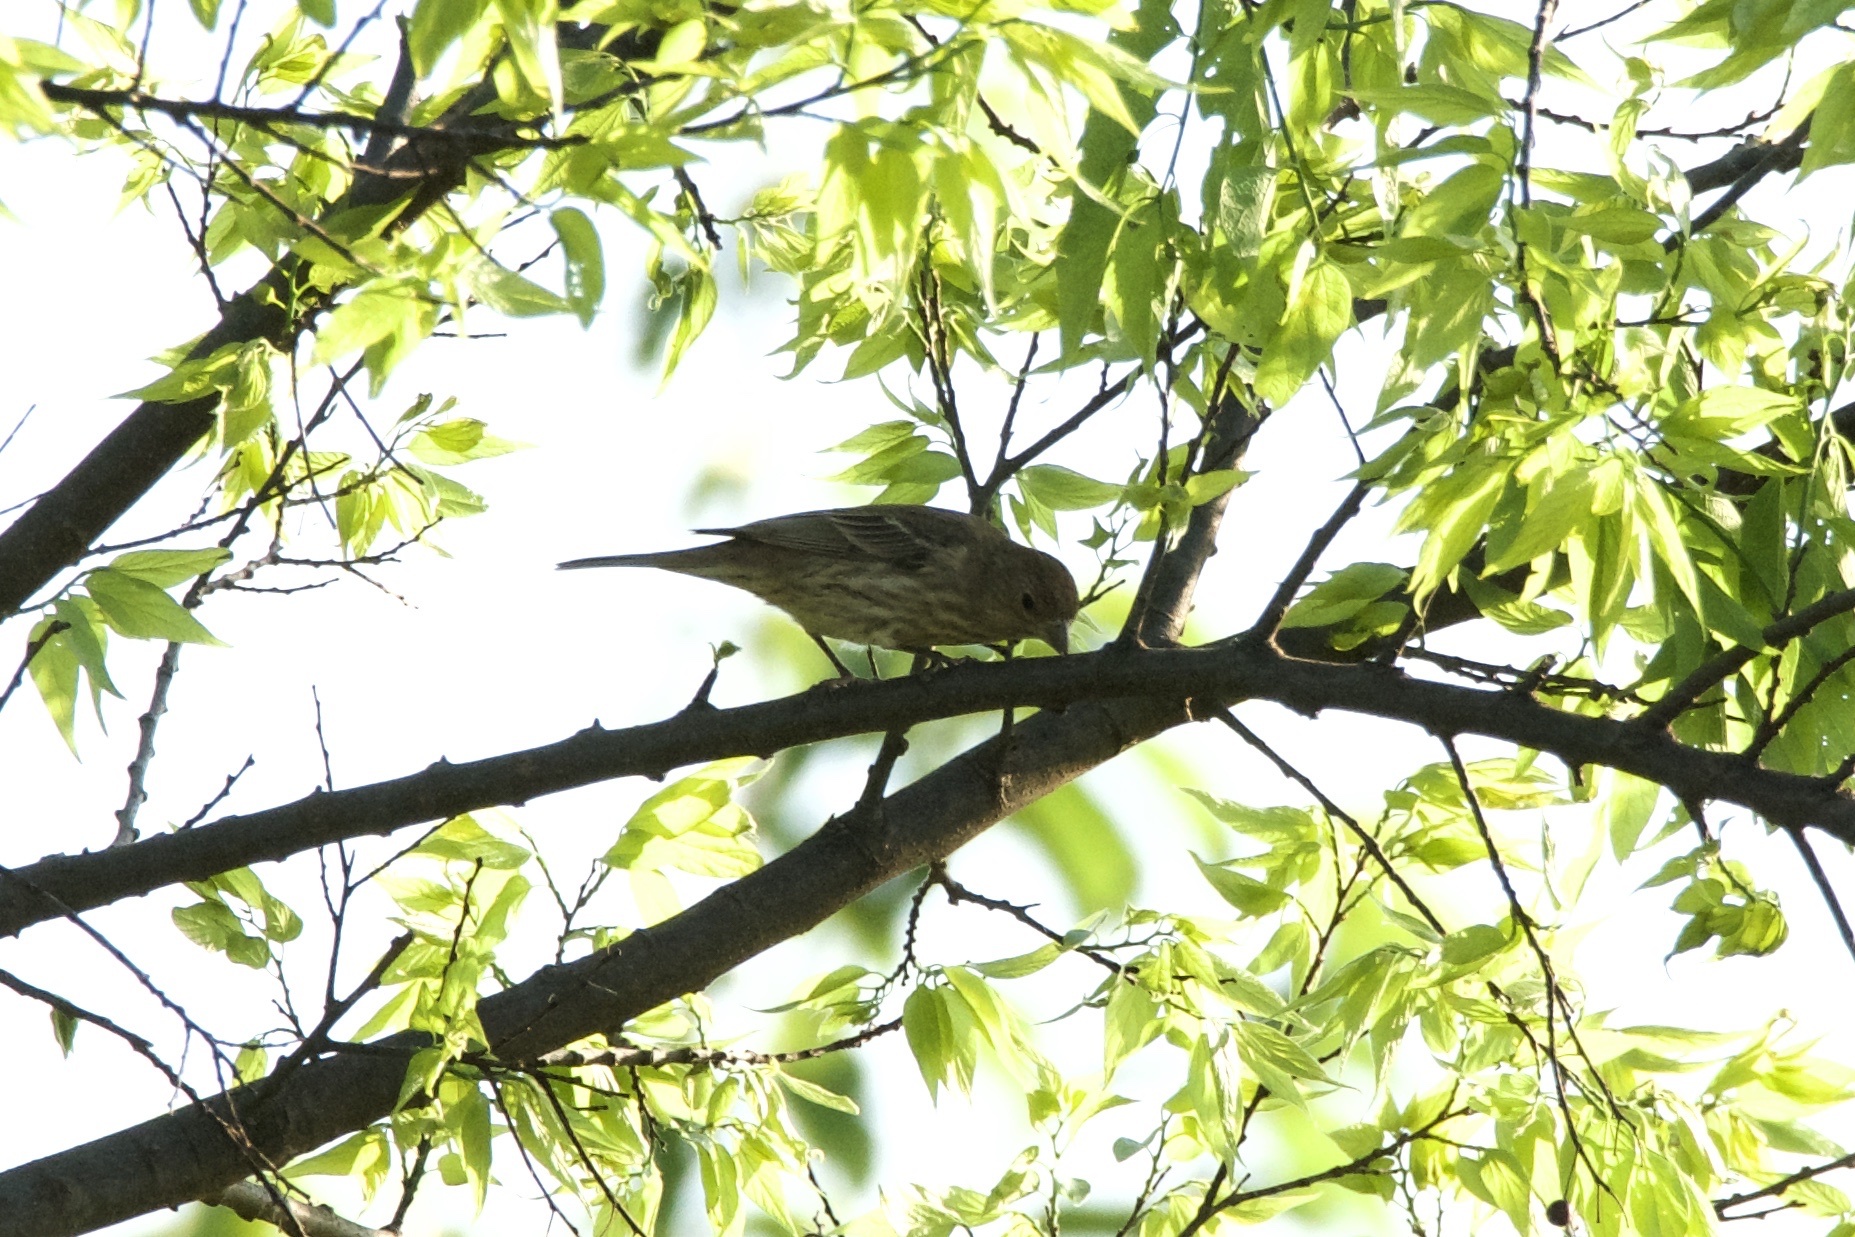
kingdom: Animalia
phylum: Chordata
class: Aves
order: Passeriformes
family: Fringillidae
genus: Haemorhous
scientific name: Haemorhous mexicanus
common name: House finch
